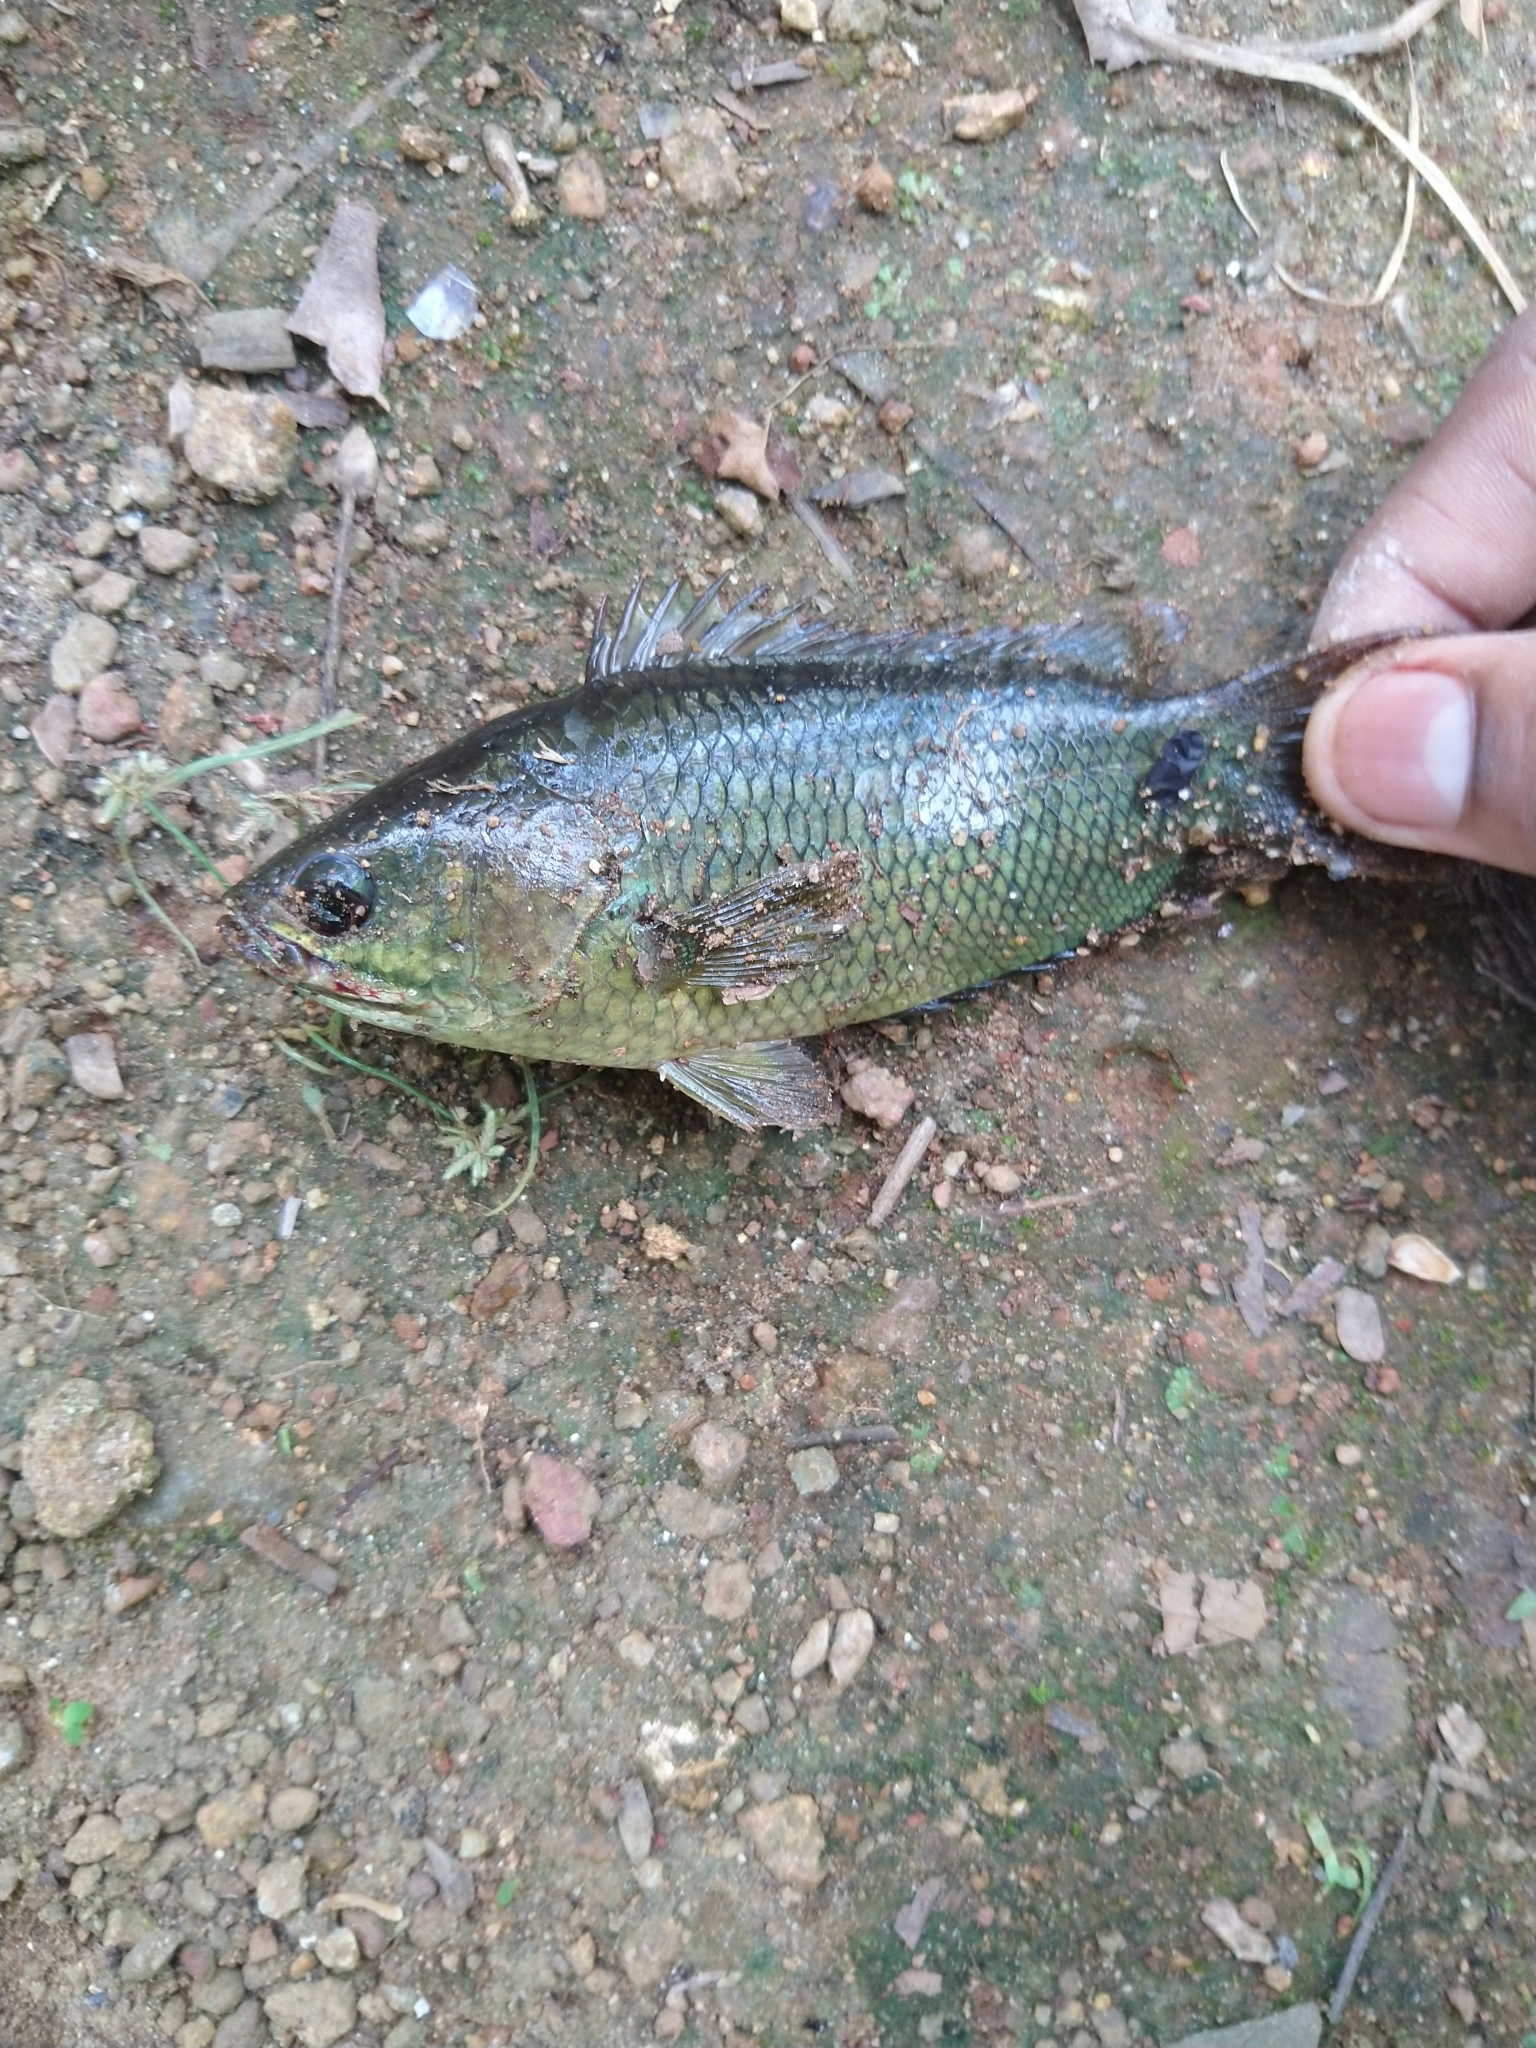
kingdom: Animalia
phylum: Chordata
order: Perciformes
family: Anabantidae
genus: Anabas
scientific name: Anabas testudineus
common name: Climbing perch
